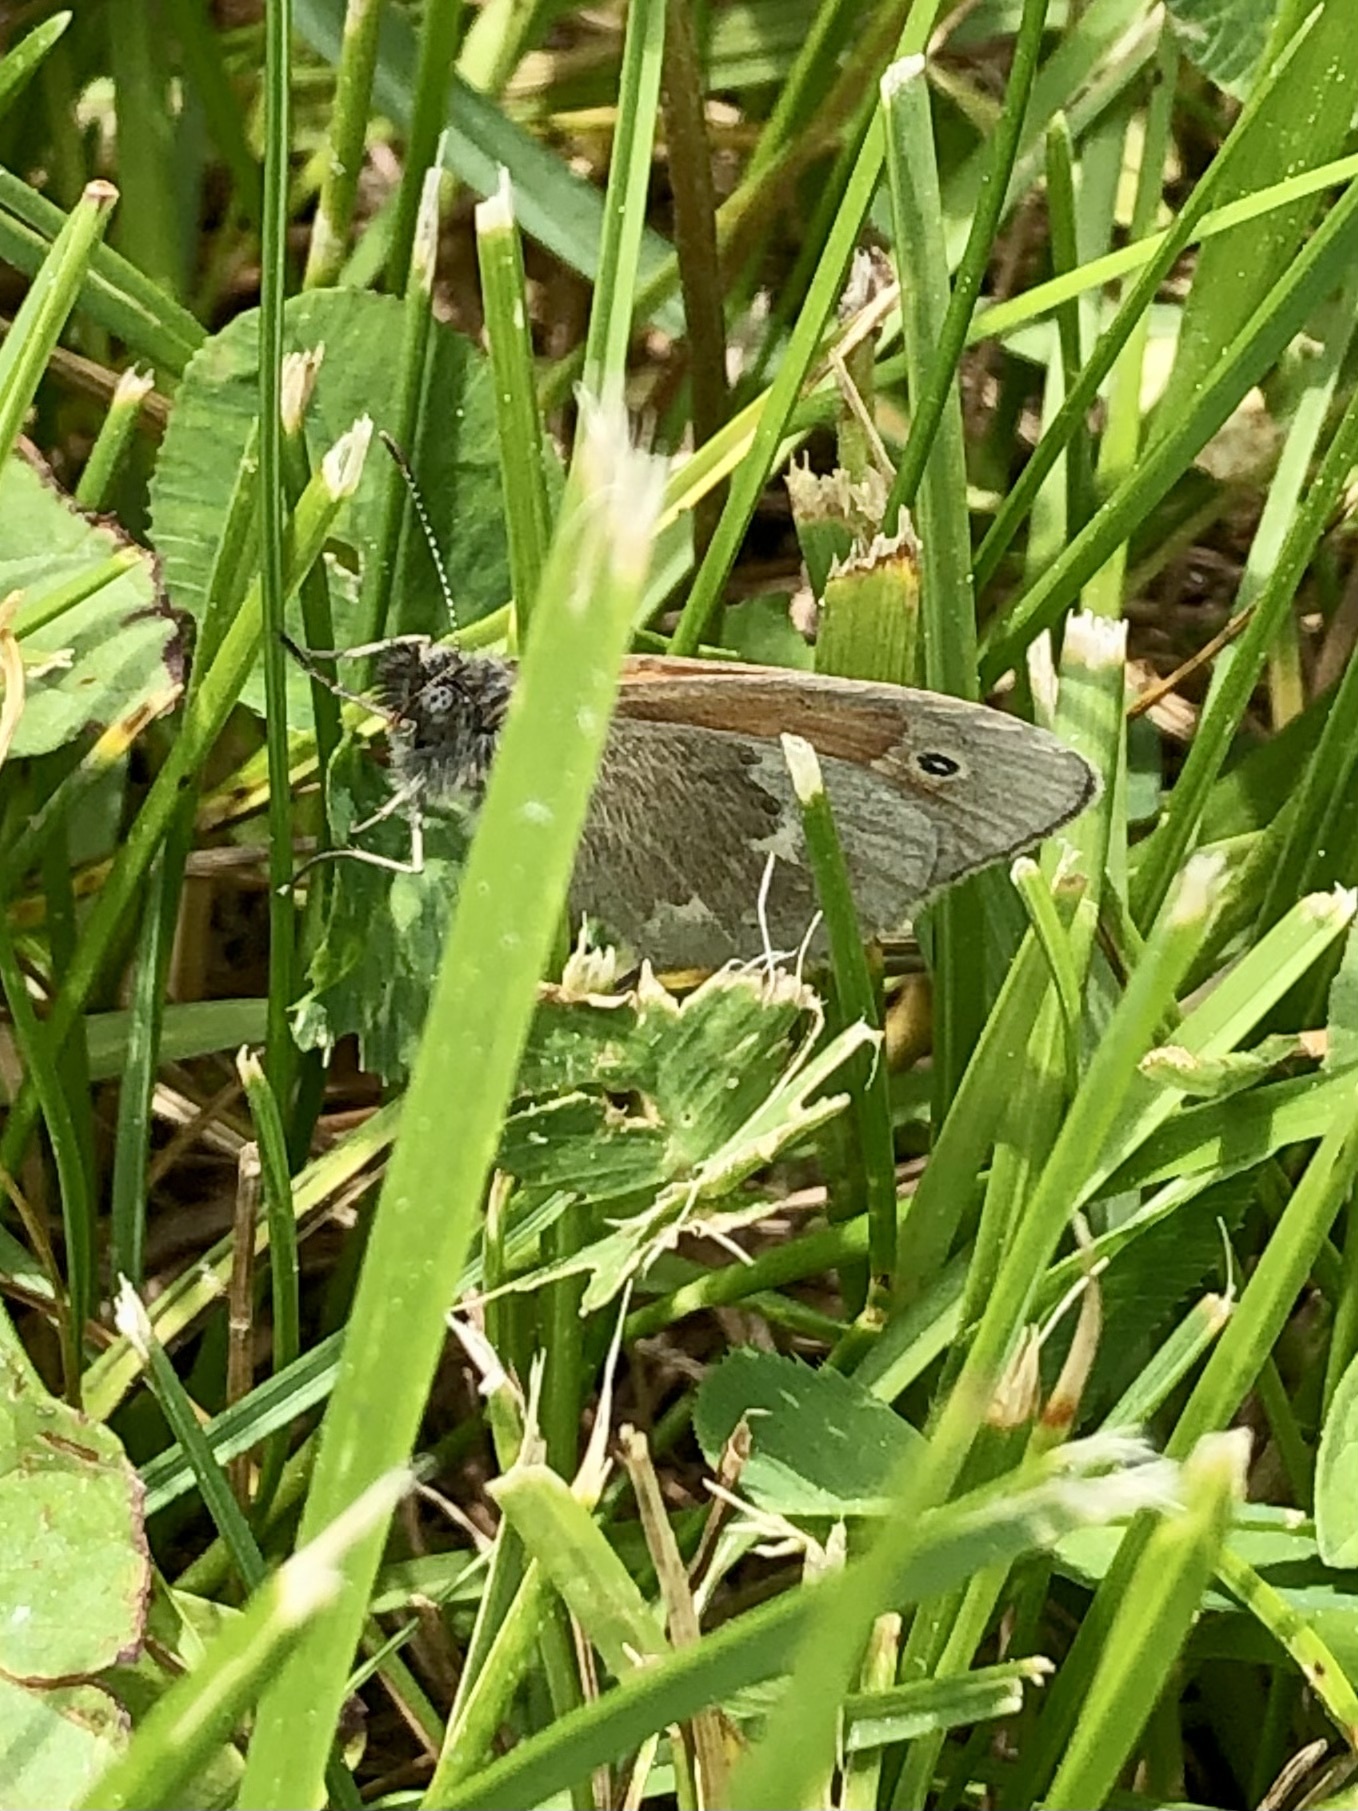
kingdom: Animalia
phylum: Arthropoda
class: Insecta
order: Lepidoptera
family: Nymphalidae
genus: Coenonympha
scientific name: Coenonympha california
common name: Common ringlet
